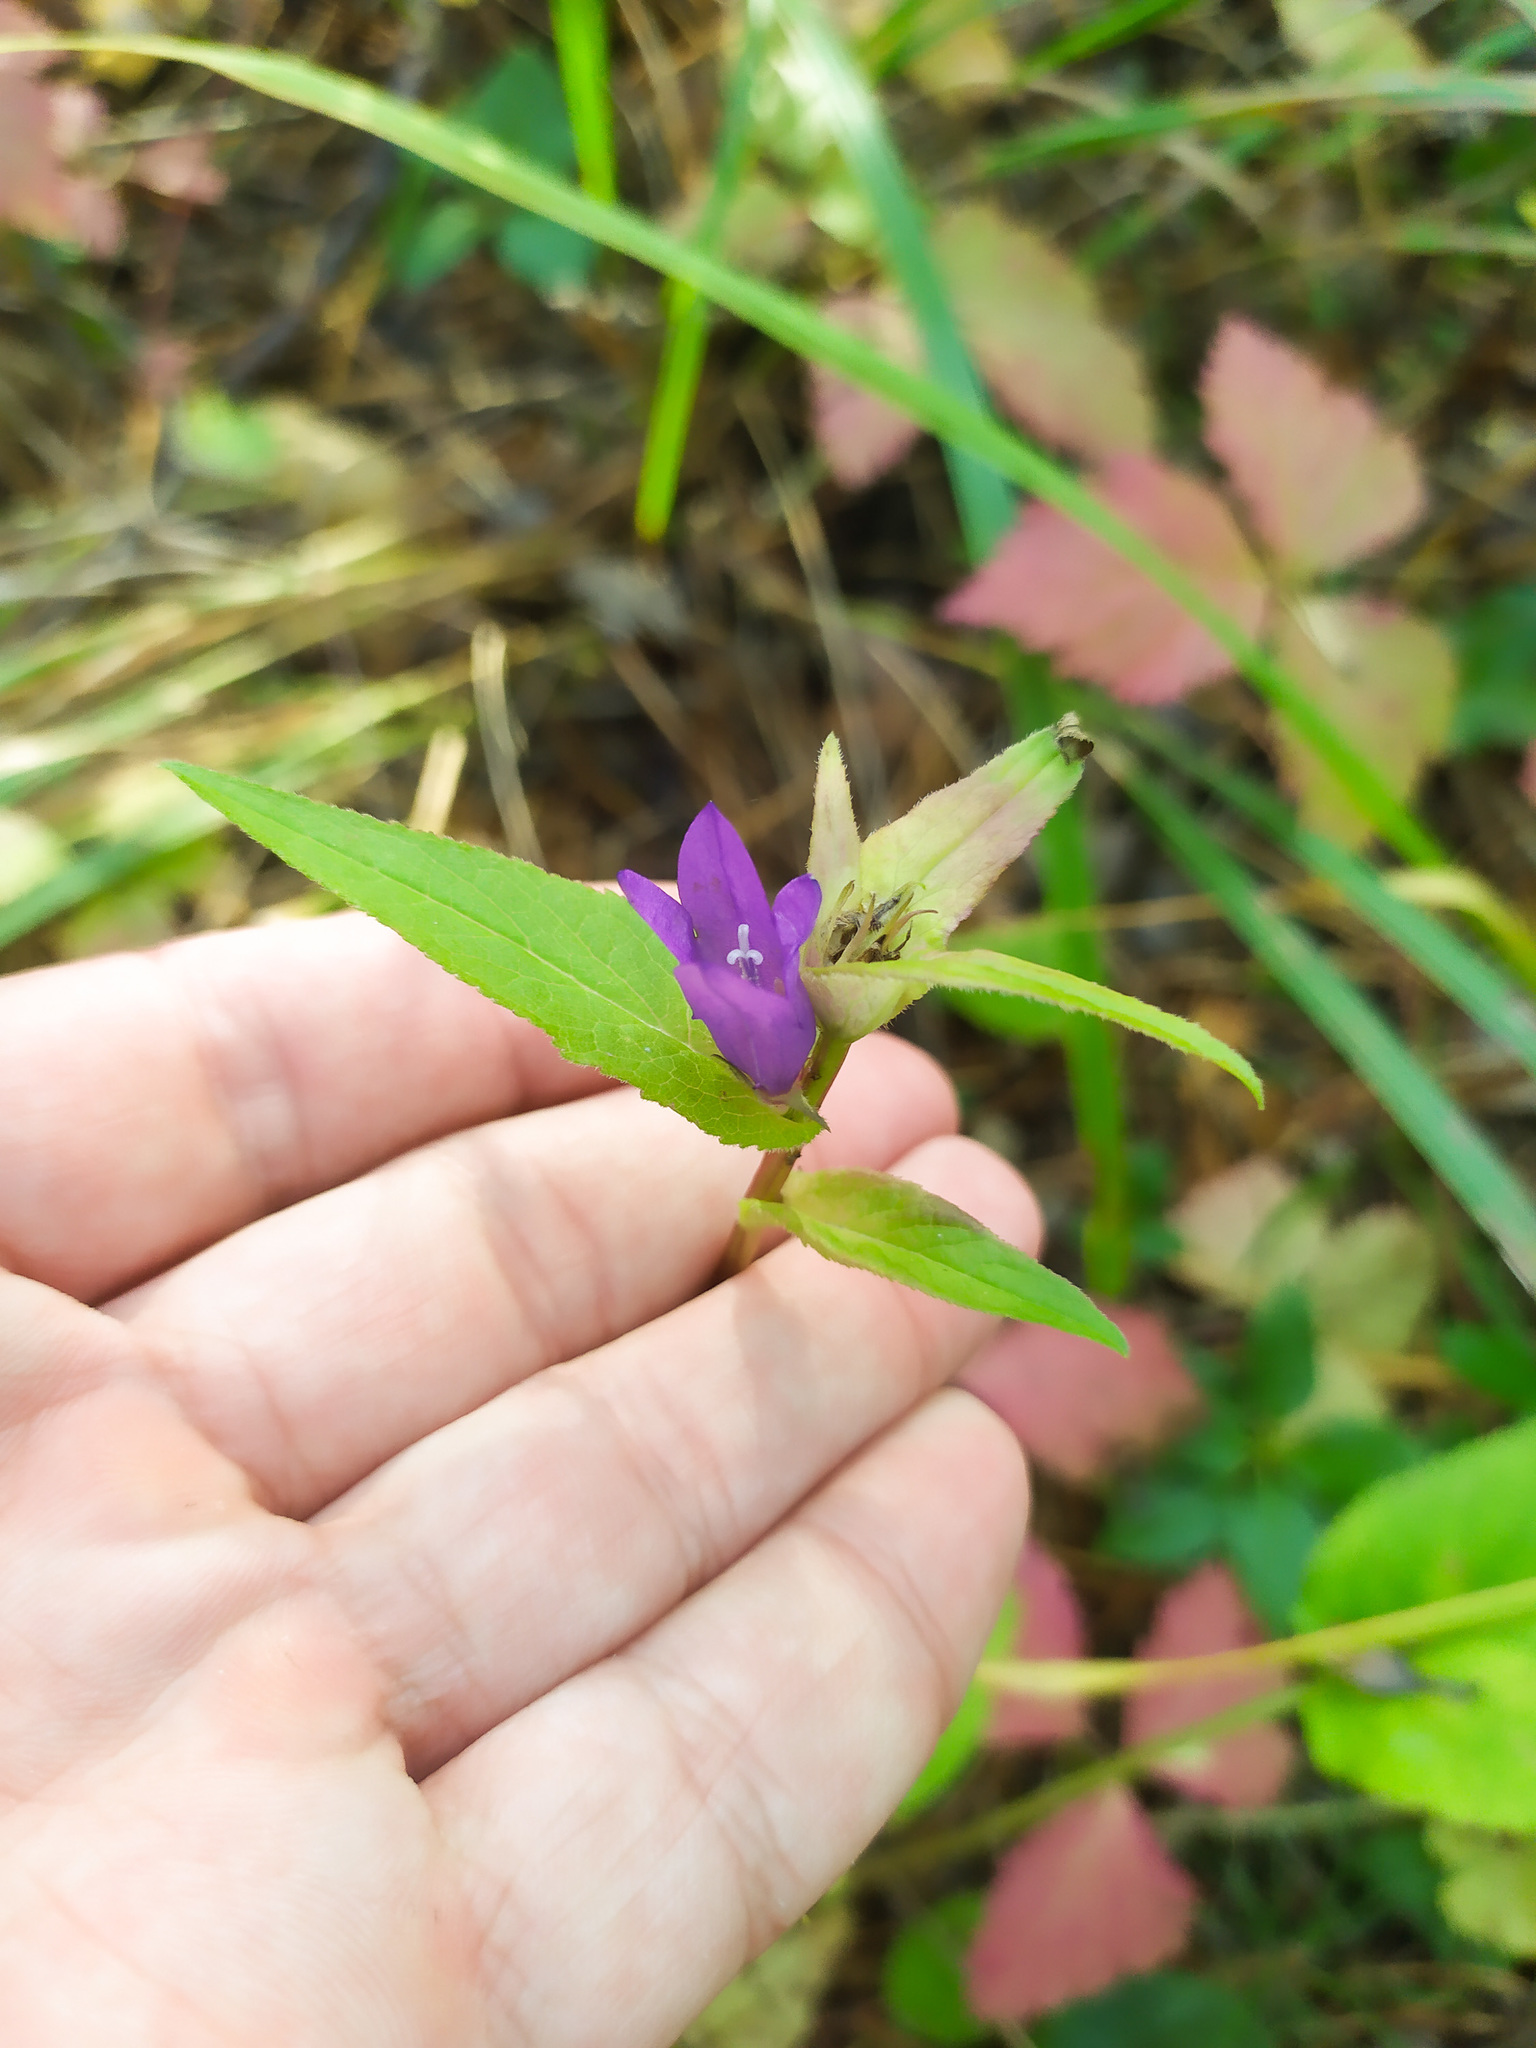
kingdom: Plantae
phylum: Tracheophyta
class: Magnoliopsida
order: Asterales
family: Campanulaceae
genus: Campanula
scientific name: Campanula glomerata
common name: Clustered bellflower
